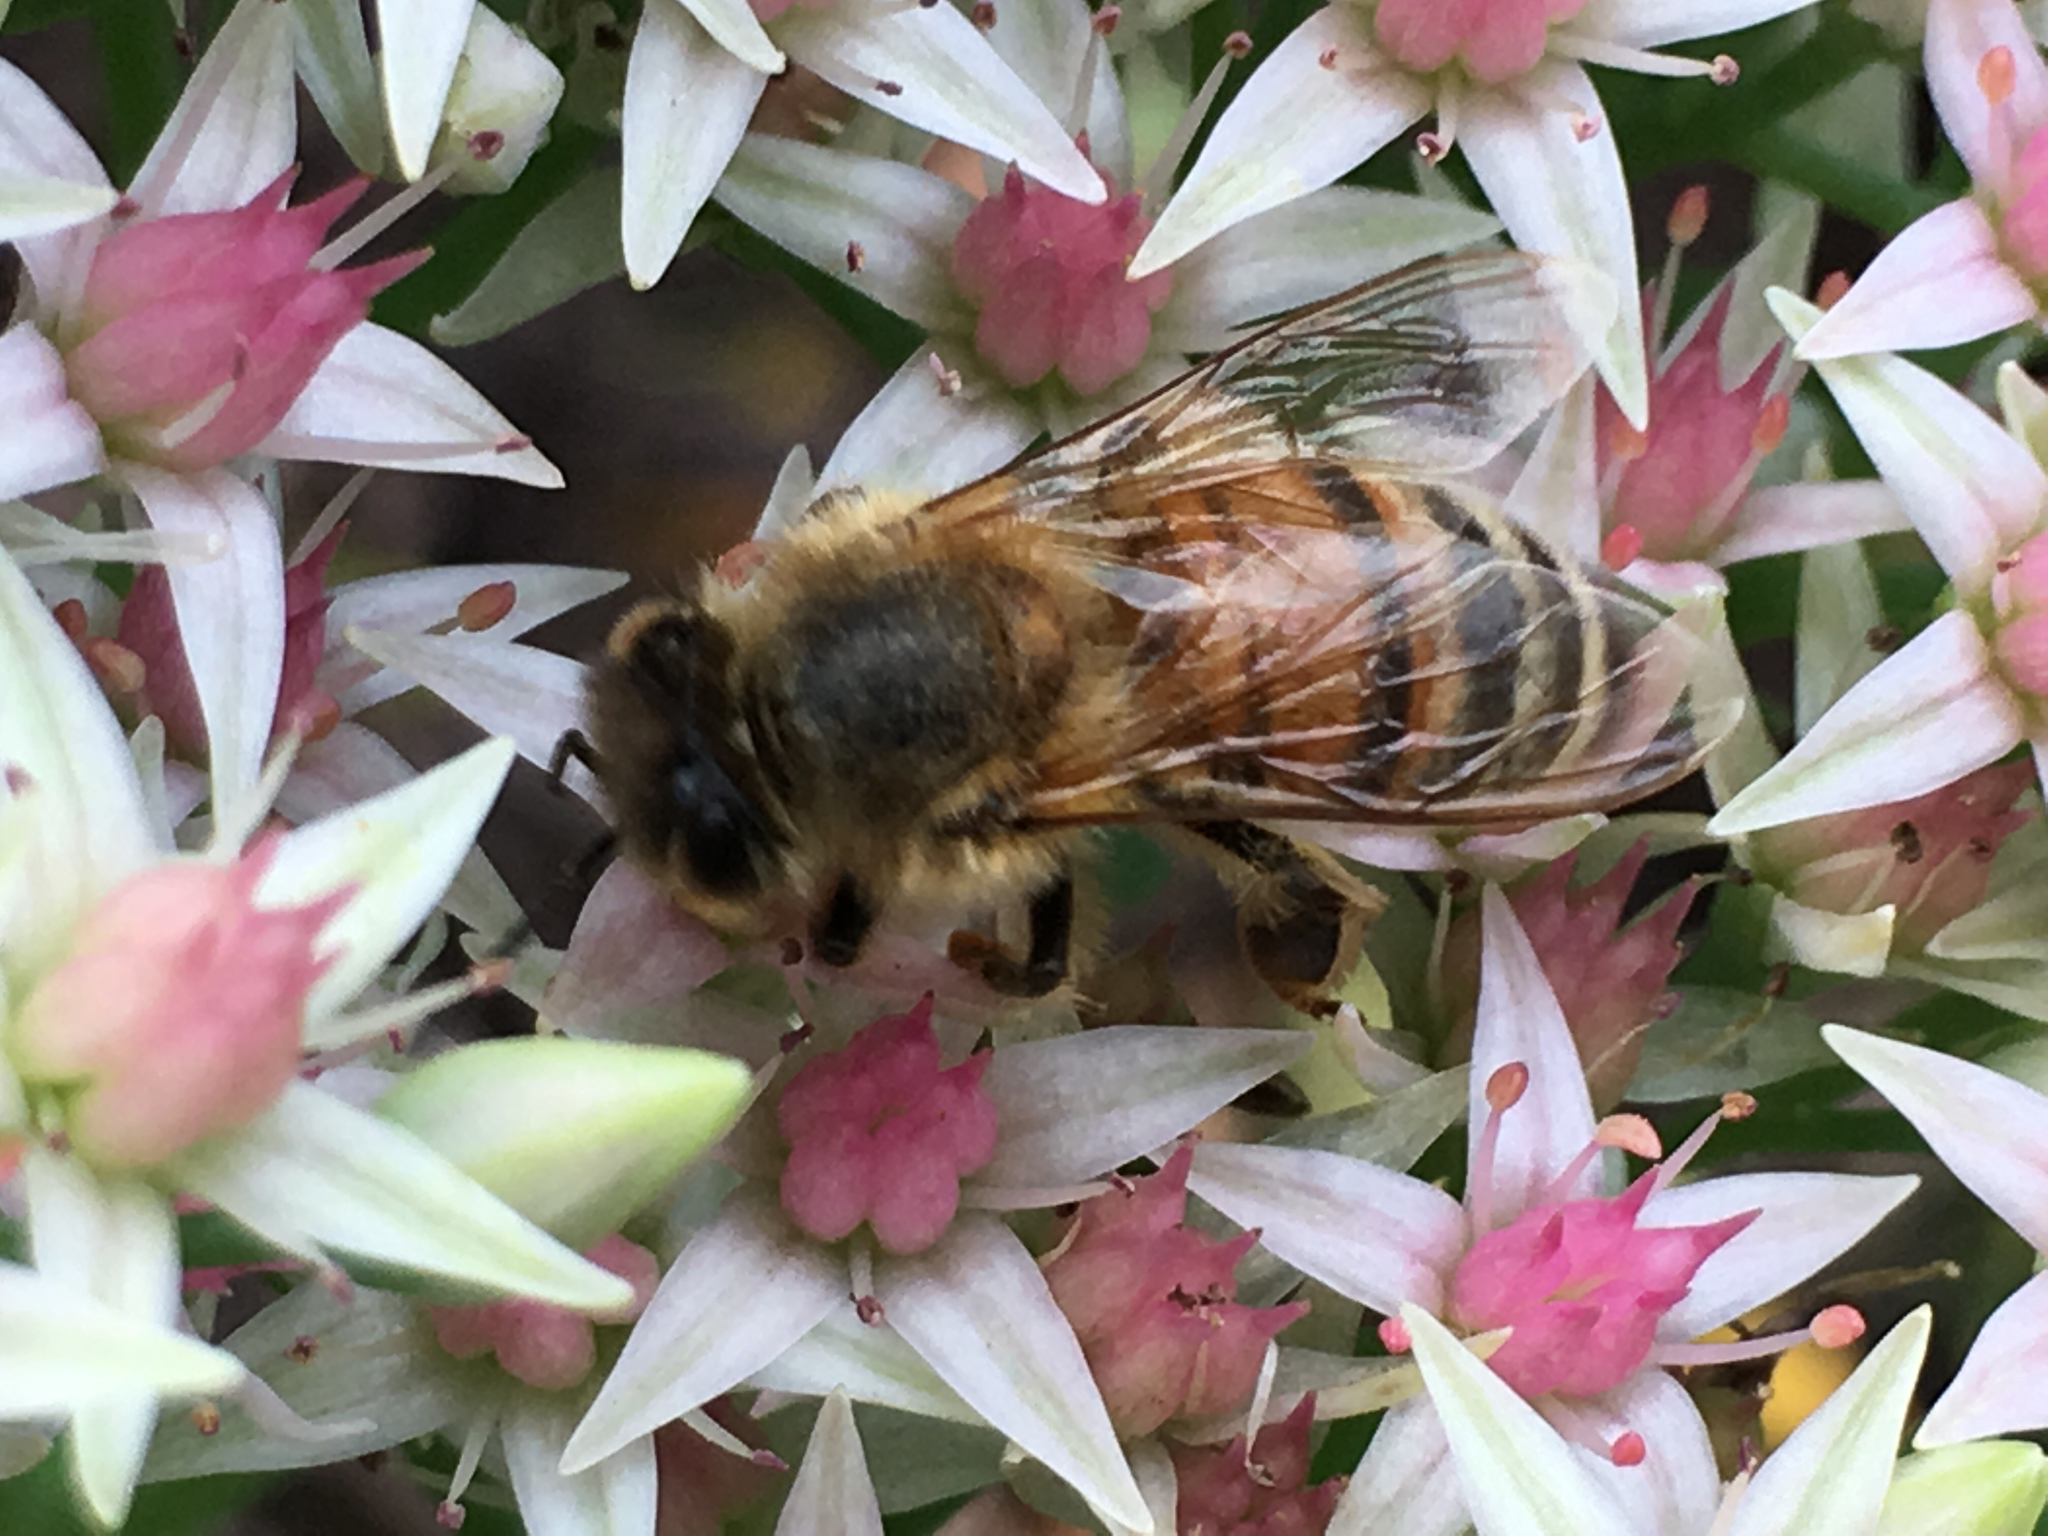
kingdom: Animalia
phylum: Arthropoda
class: Insecta
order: Hymenoptera
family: Apidae
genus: Apis
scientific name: Apis mellifera
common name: Honey bee
